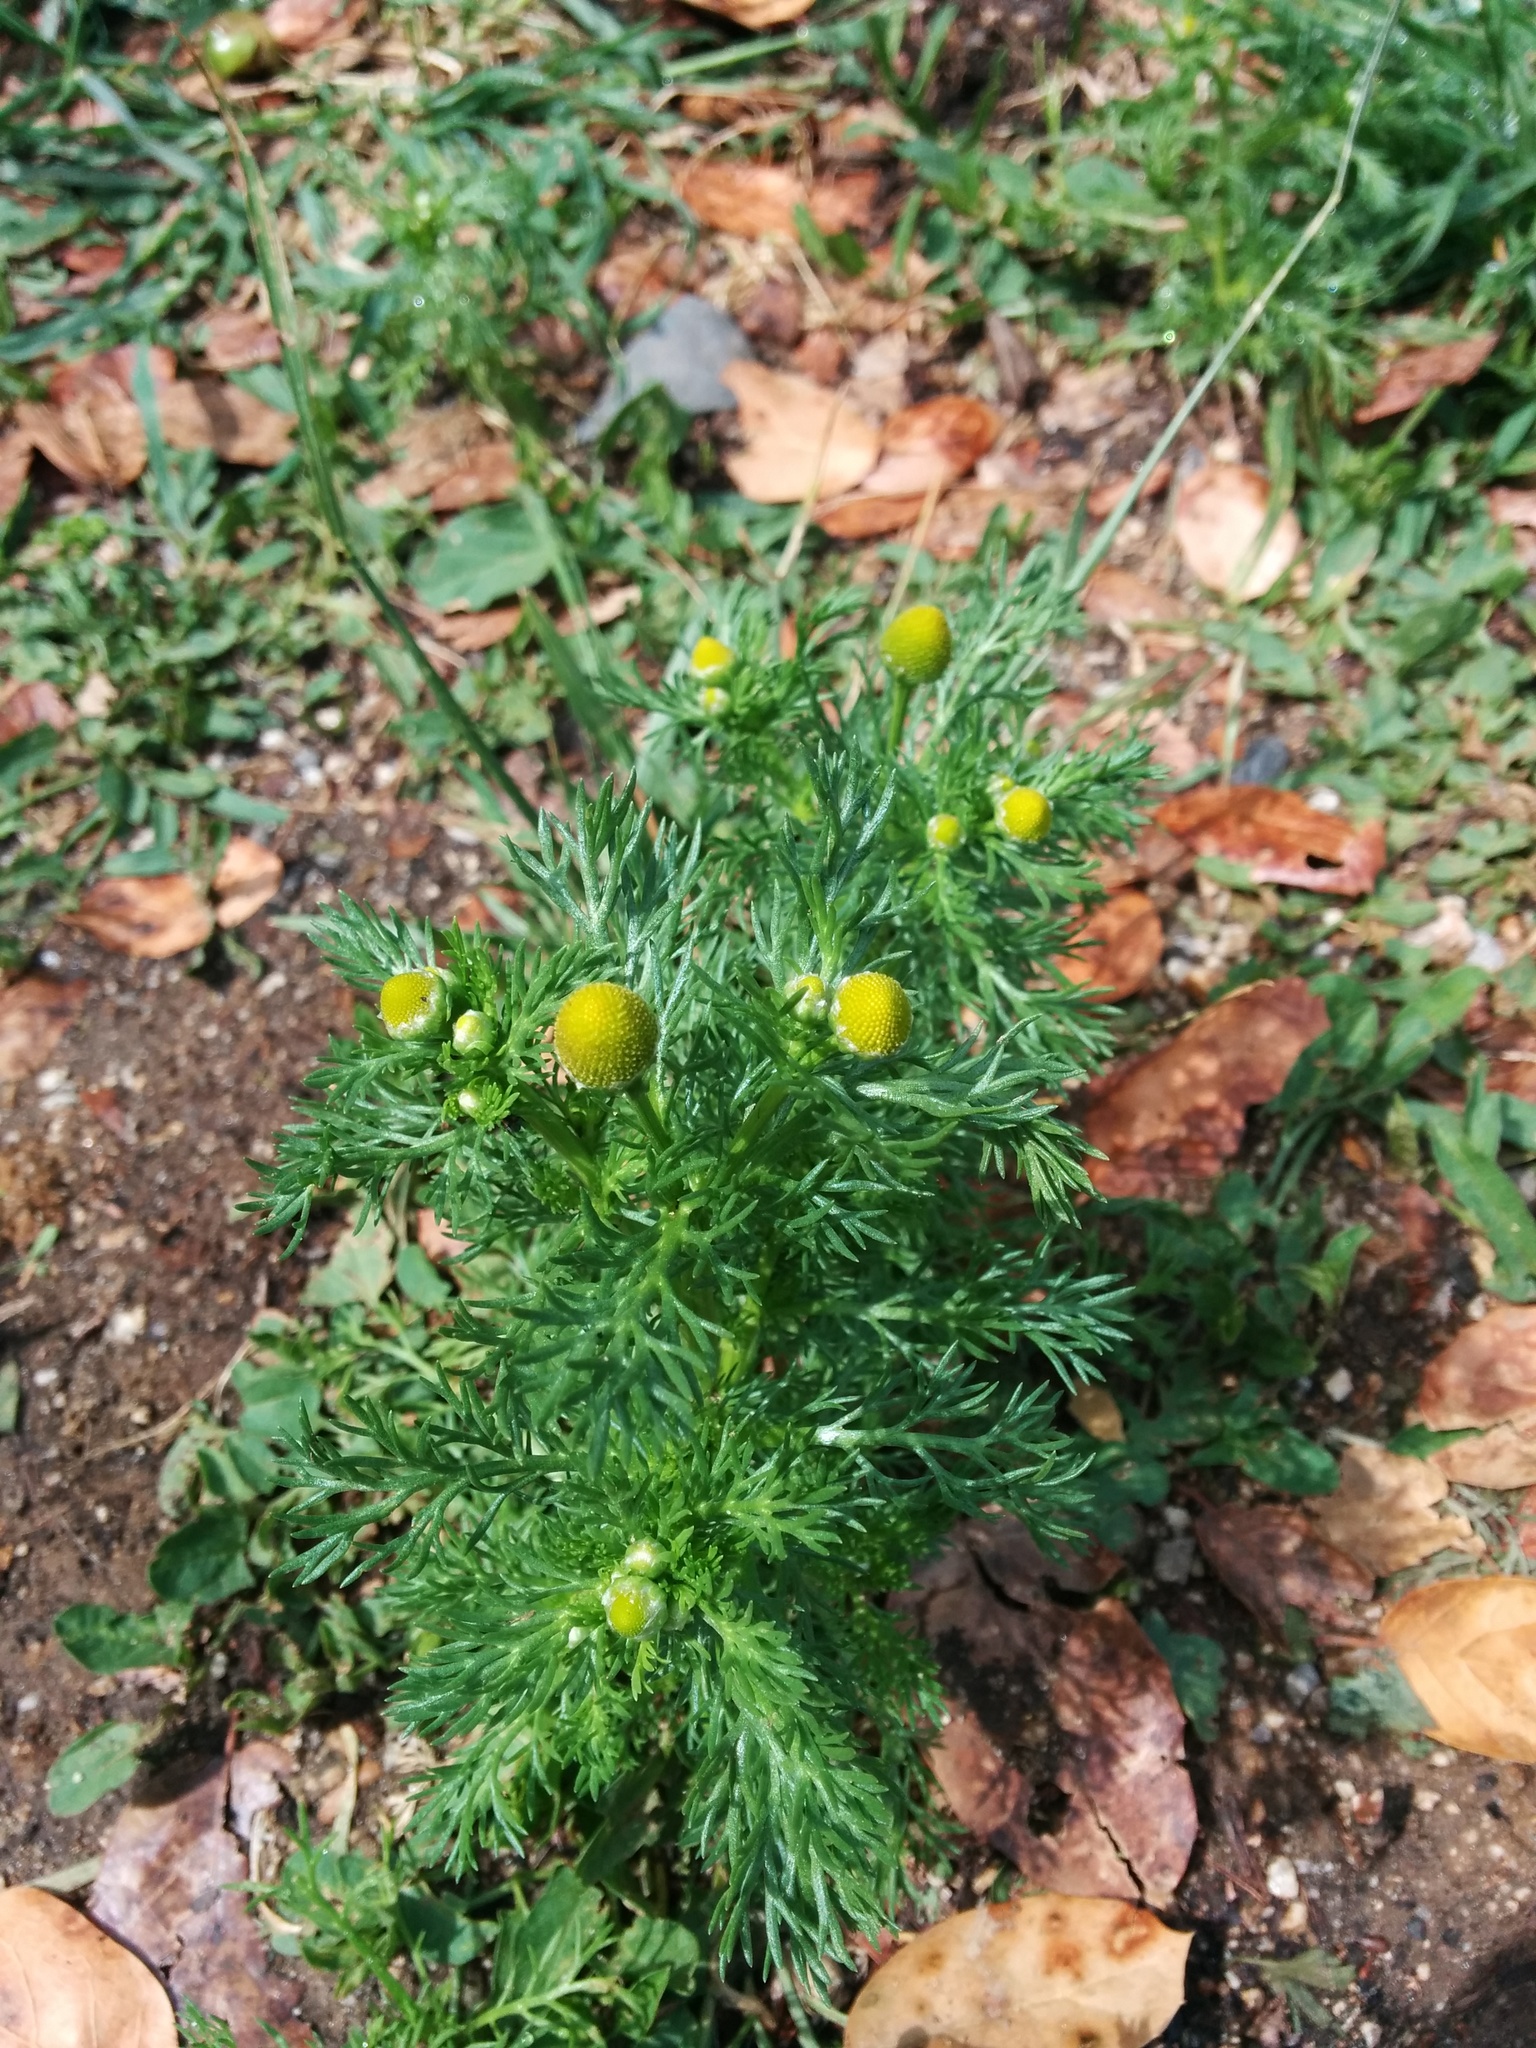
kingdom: Plantae
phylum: Tracheophyta
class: Magnoliopsida
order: Asterales
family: Asteraceae
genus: Matricaria
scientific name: Matricaria discoidea
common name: Disc mayweed
